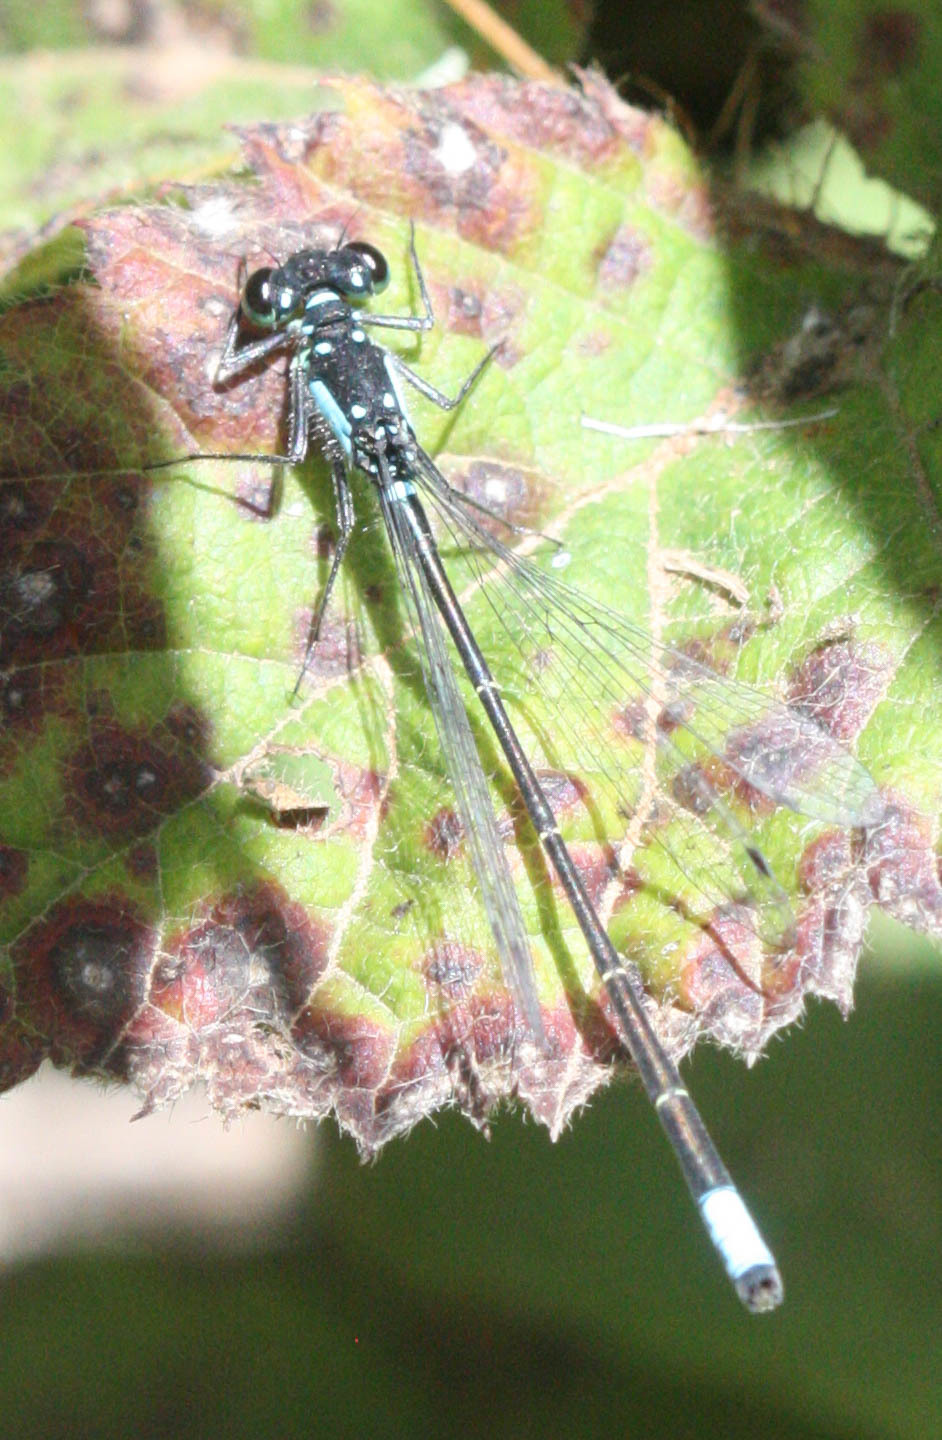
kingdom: Animalia
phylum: Arthropoda
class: Insecta
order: Odonata
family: Coenagrionidae
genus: Ischnura
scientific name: Ischnura cervula
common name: Pacific forktail
